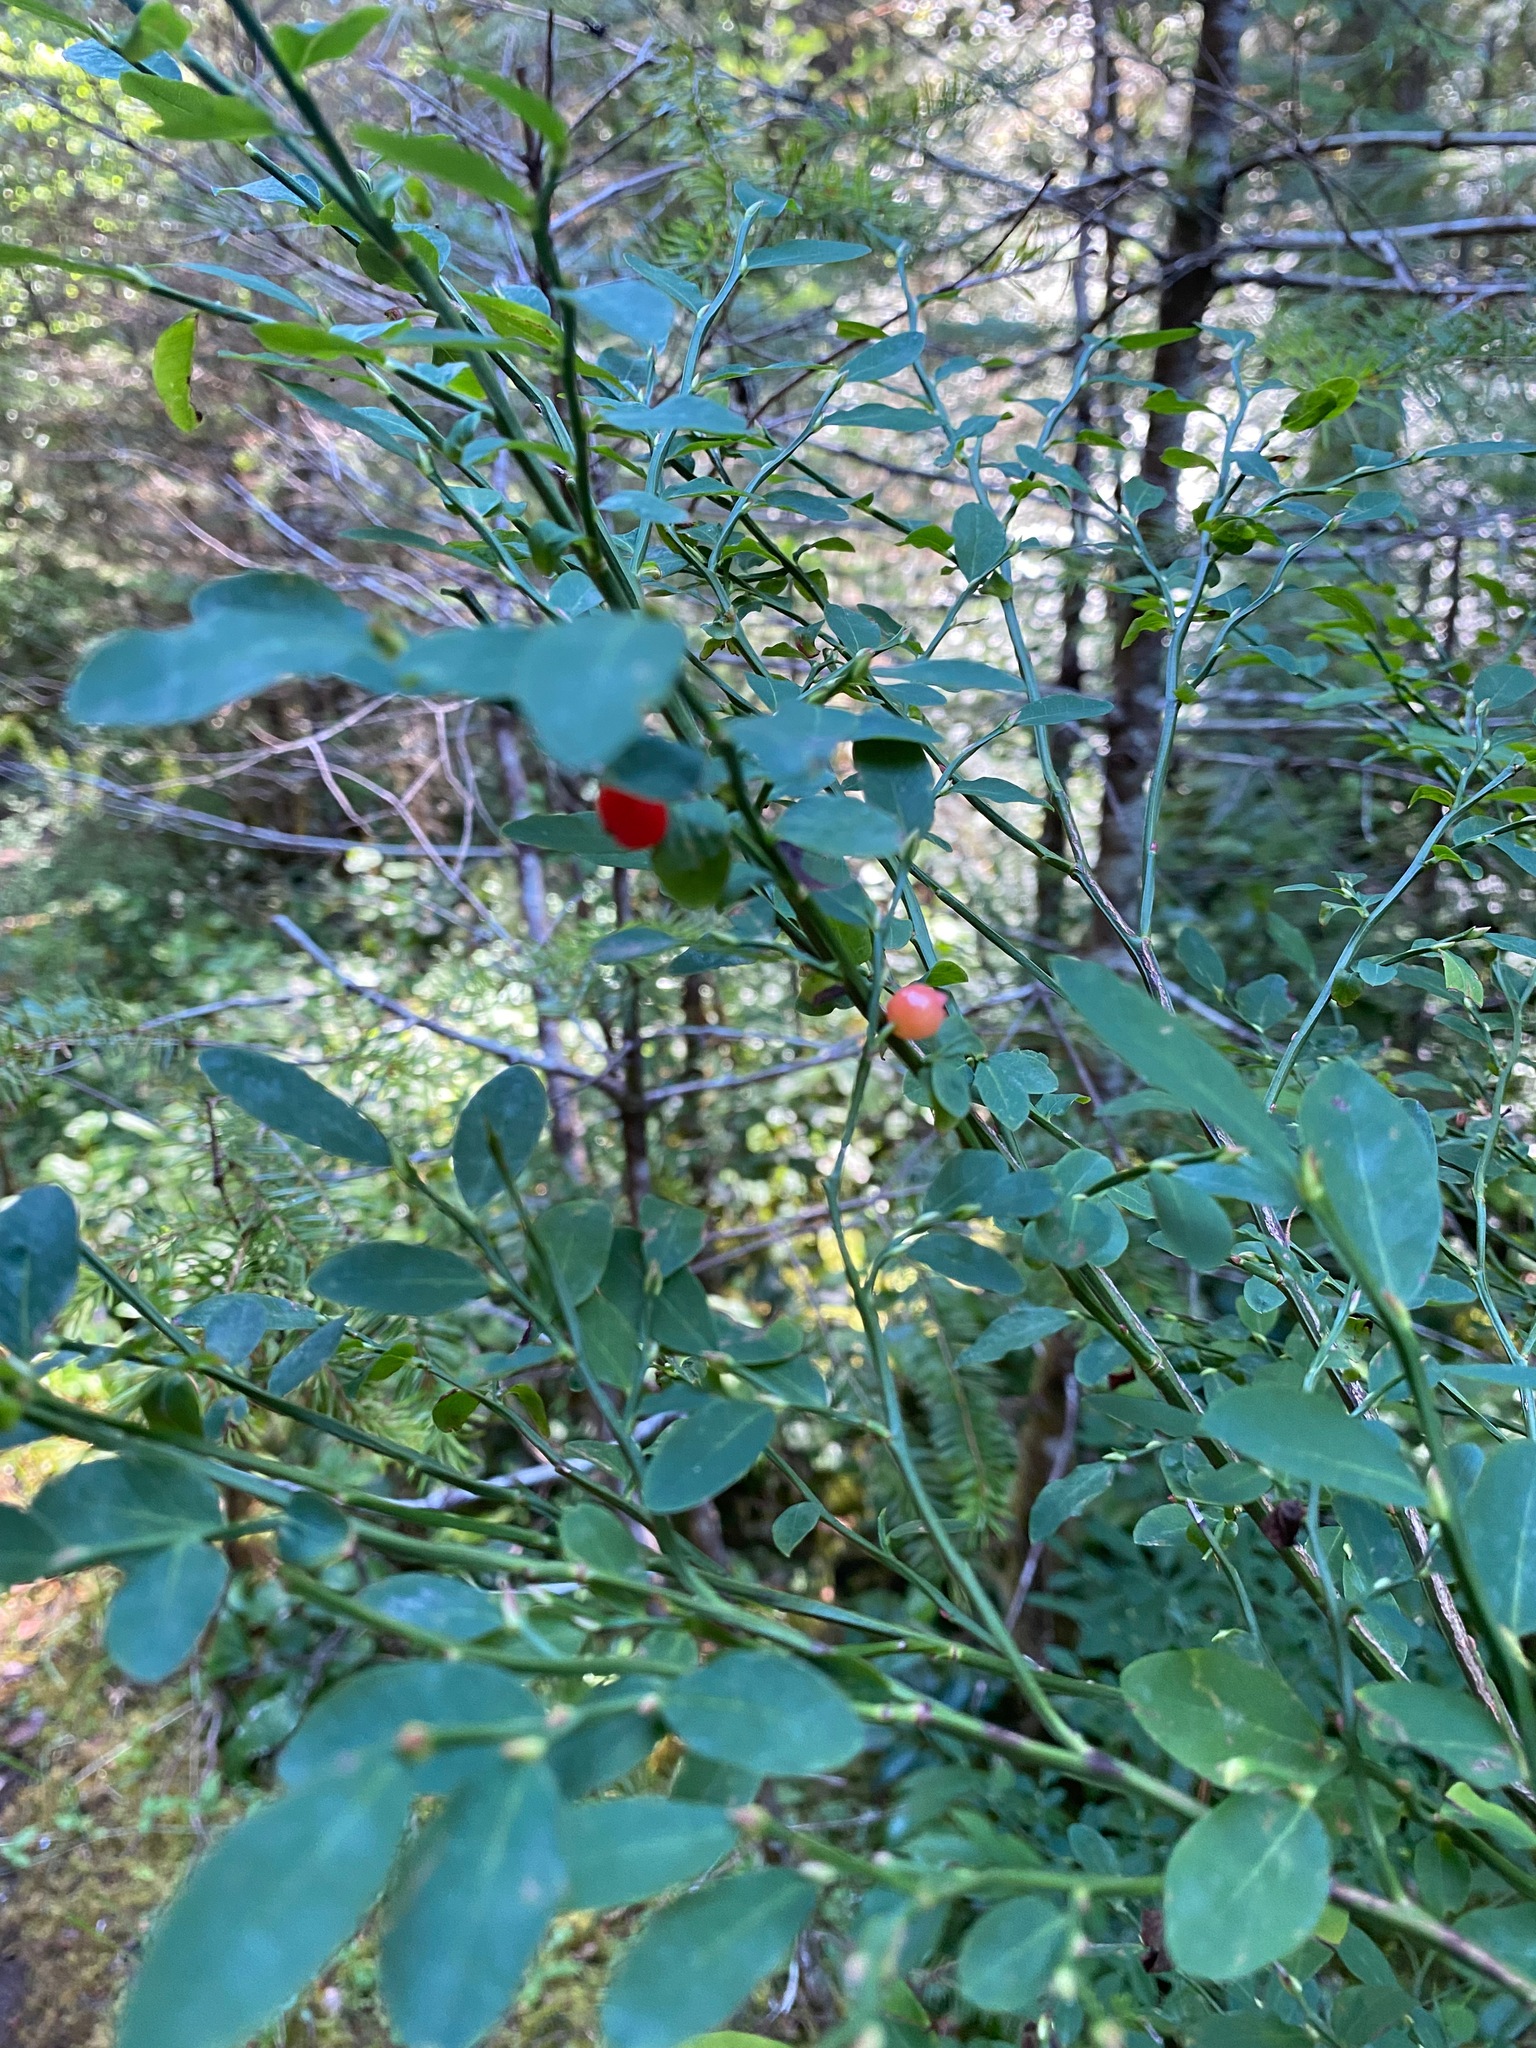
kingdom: Plantae
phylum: Tracheophyta
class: Magnoliopsida
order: Ericales
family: Ericaceae
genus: Vaccinium
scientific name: Vaccinium parvifolium
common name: Red-huckleberry
